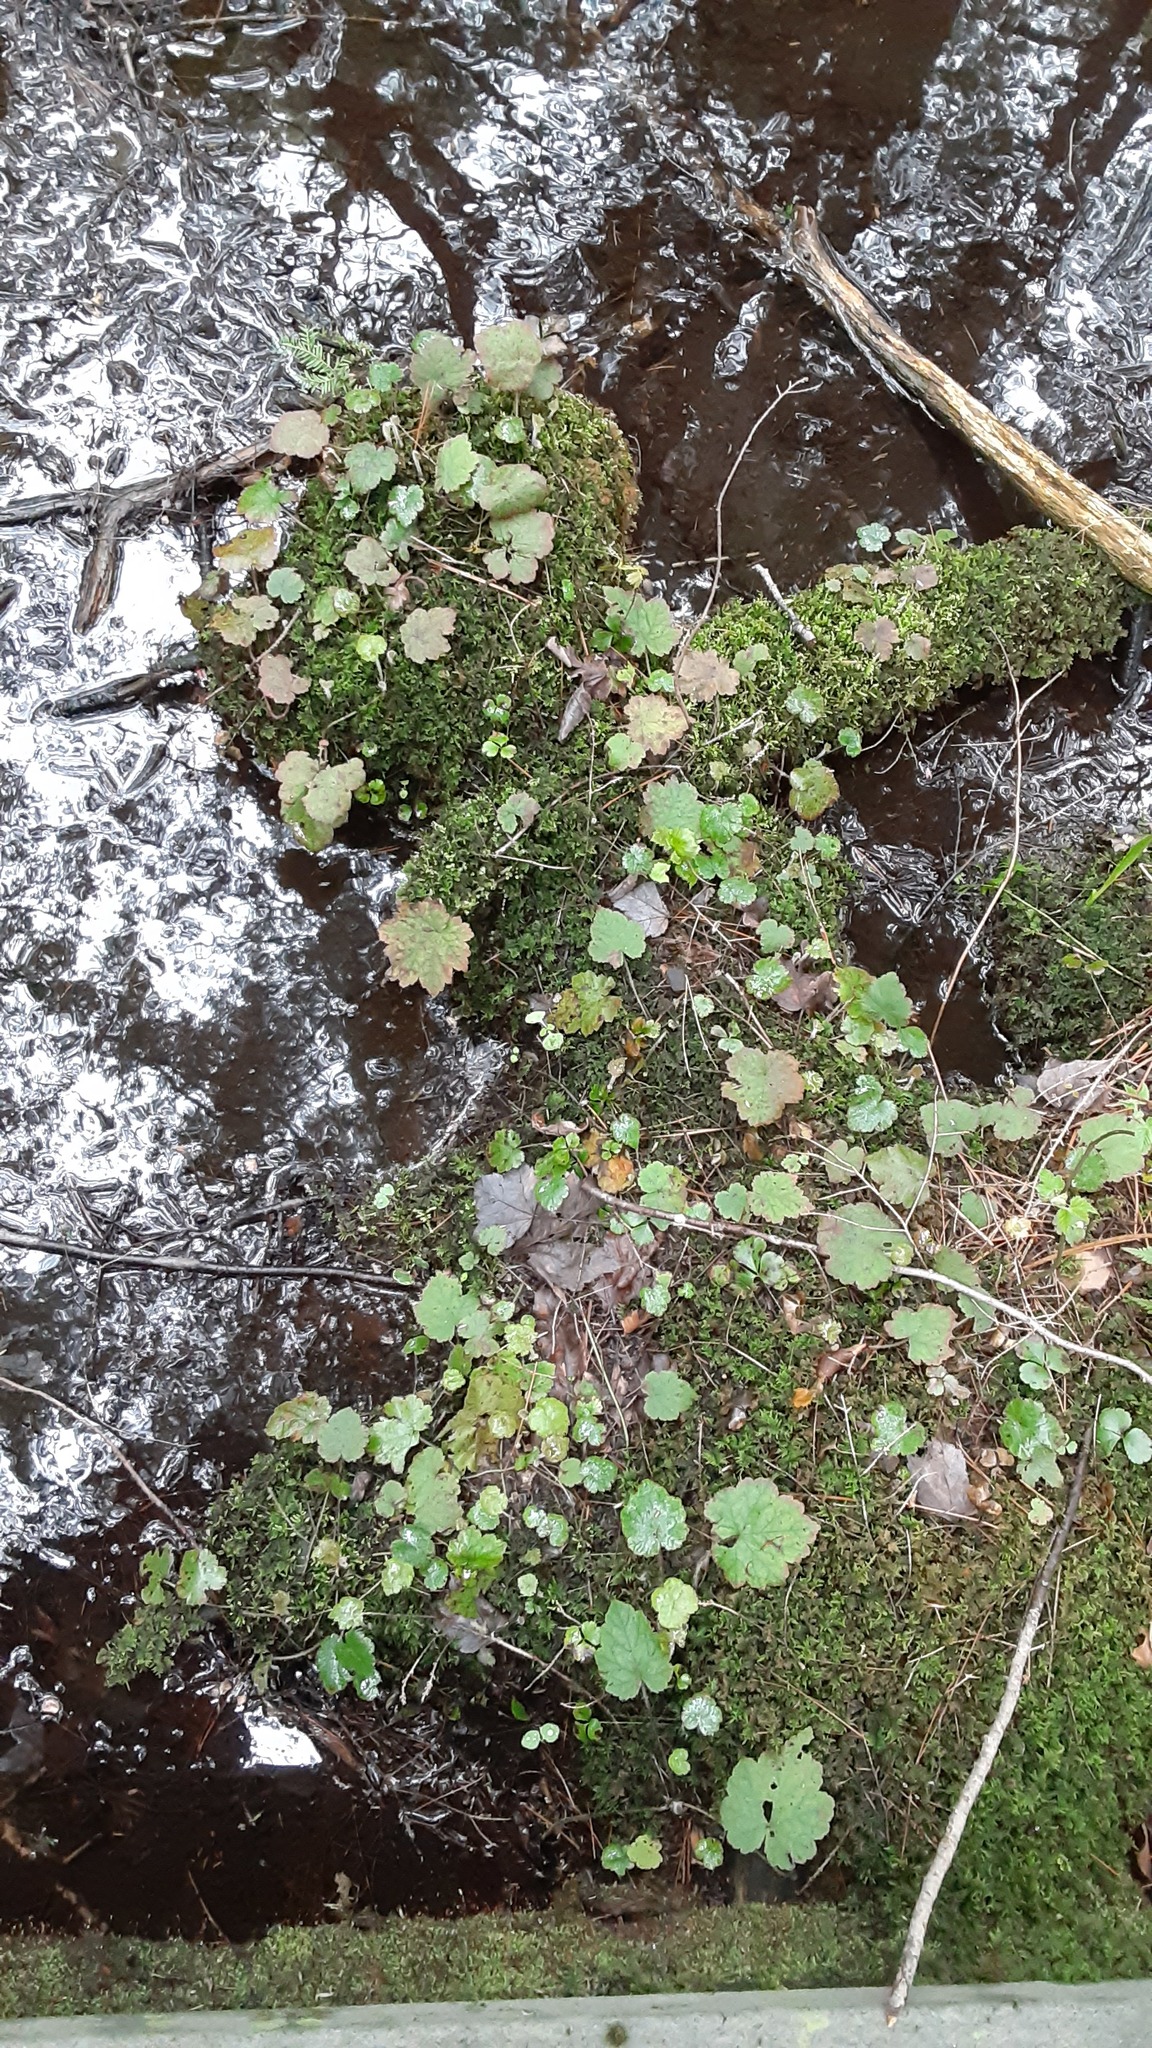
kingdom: Plantae
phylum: Tracheophyta
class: Magnoliopsida
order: Saxifragales
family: Saxifragaceae
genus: Tiarella
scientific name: Tiarella stolonifera
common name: Stoloniferous foamflower
